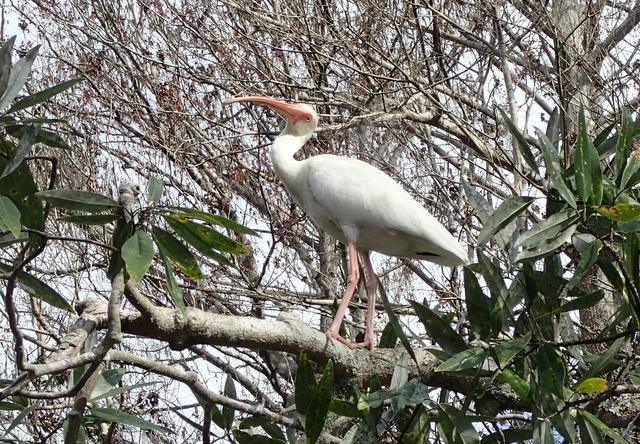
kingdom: Animalia
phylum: Chordata
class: Aves
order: Pelecaniformes
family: Threskiornithidae
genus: Eudocimus
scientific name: Eudocimus albus
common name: White ibis
